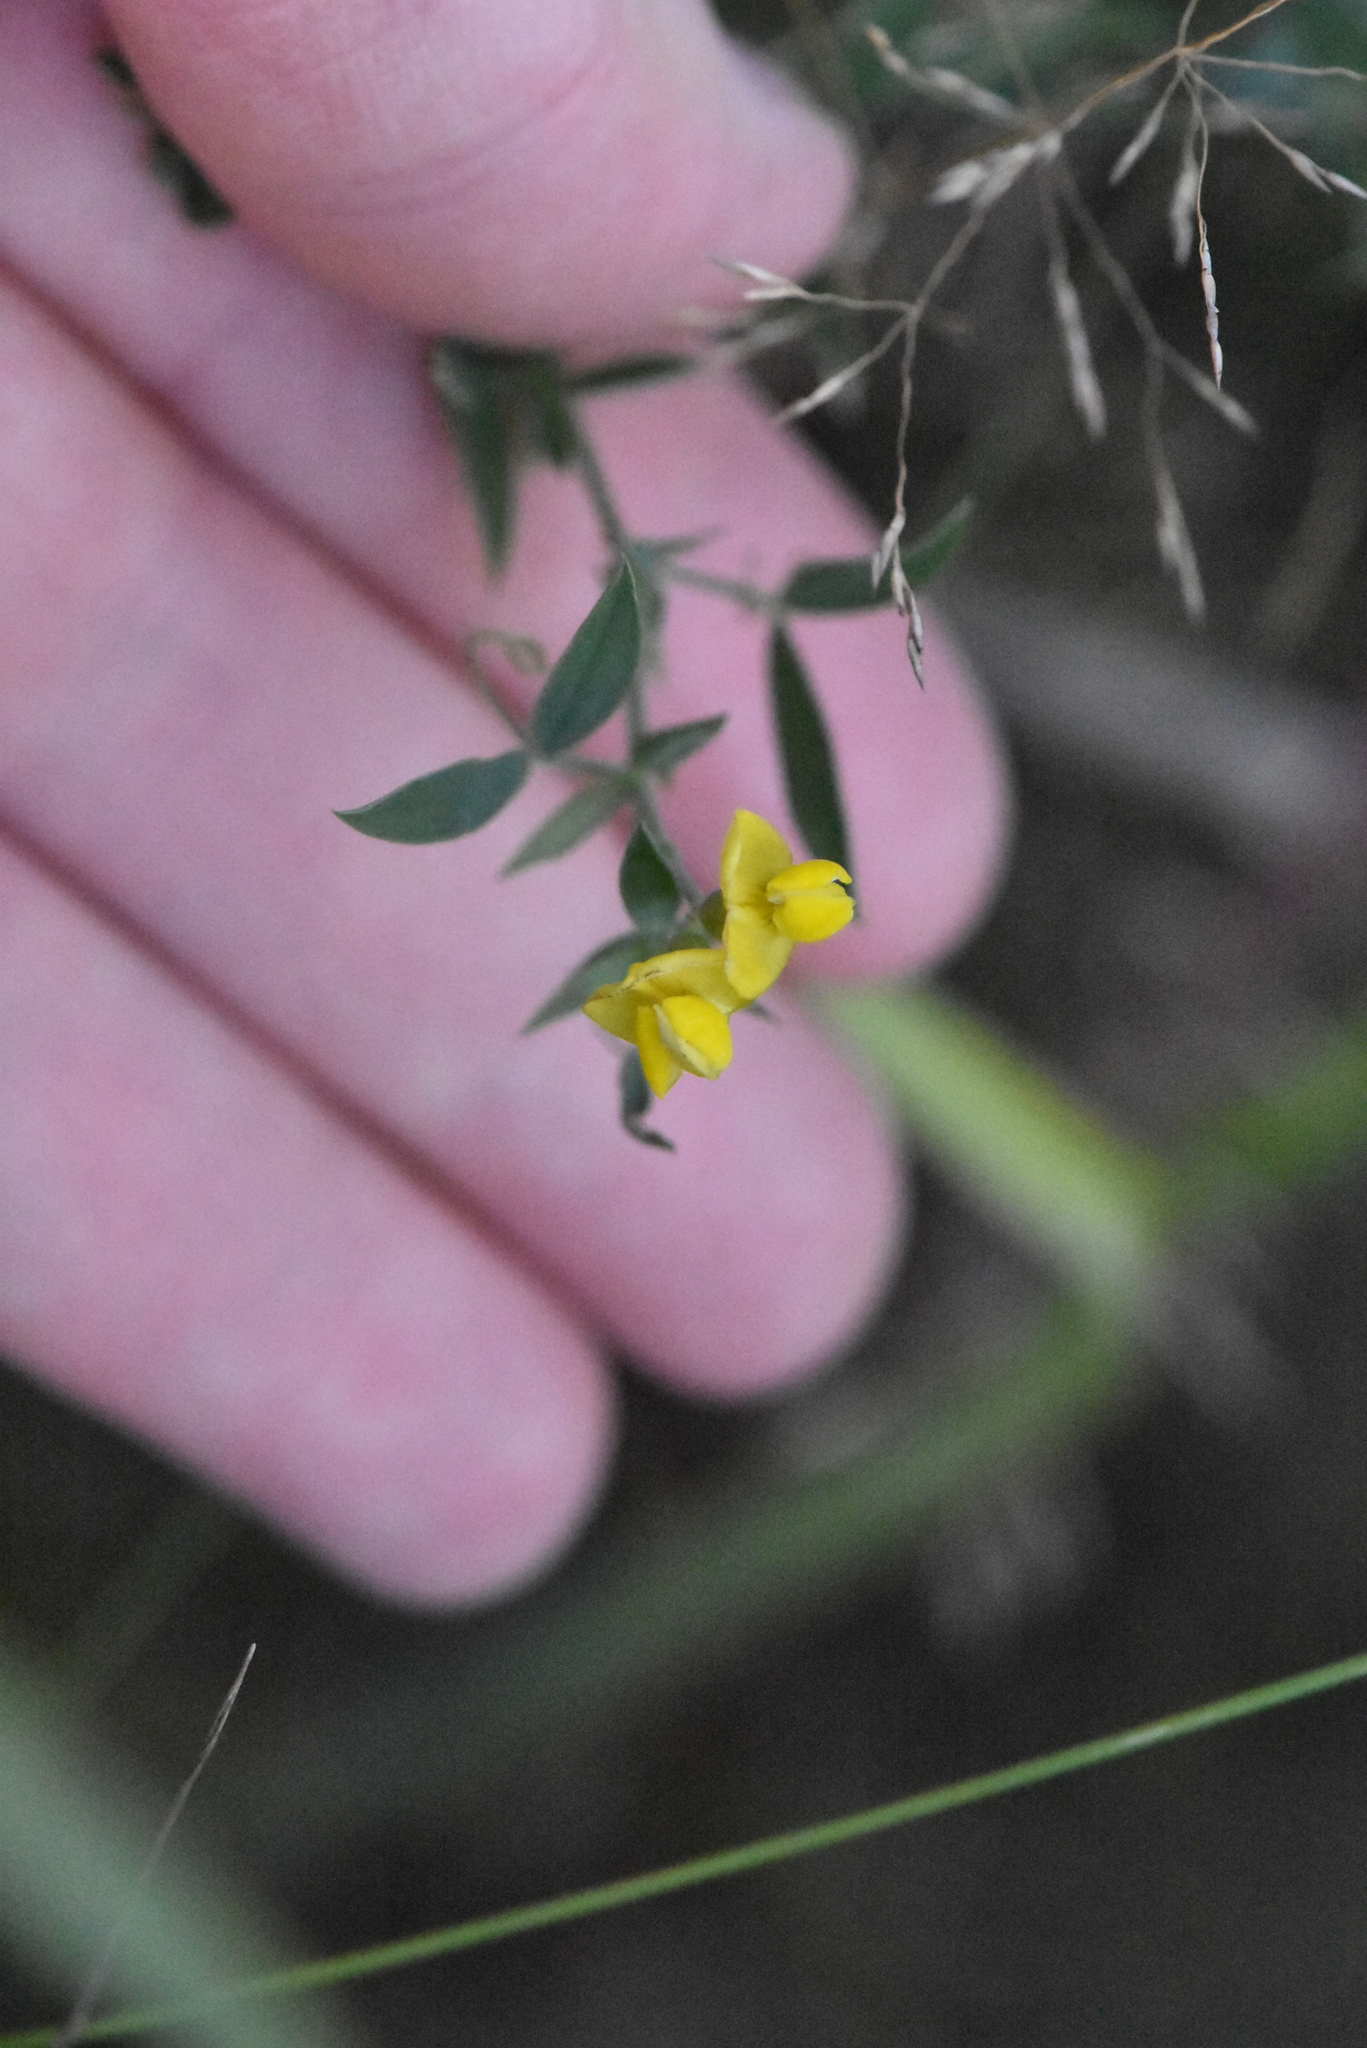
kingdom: Plantae
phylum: Tracheophyta
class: Magnoliopsida
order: Fabales
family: Fabaceae
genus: Lathyrus
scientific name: Lathyrus pratensis
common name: Meadow vetchling
